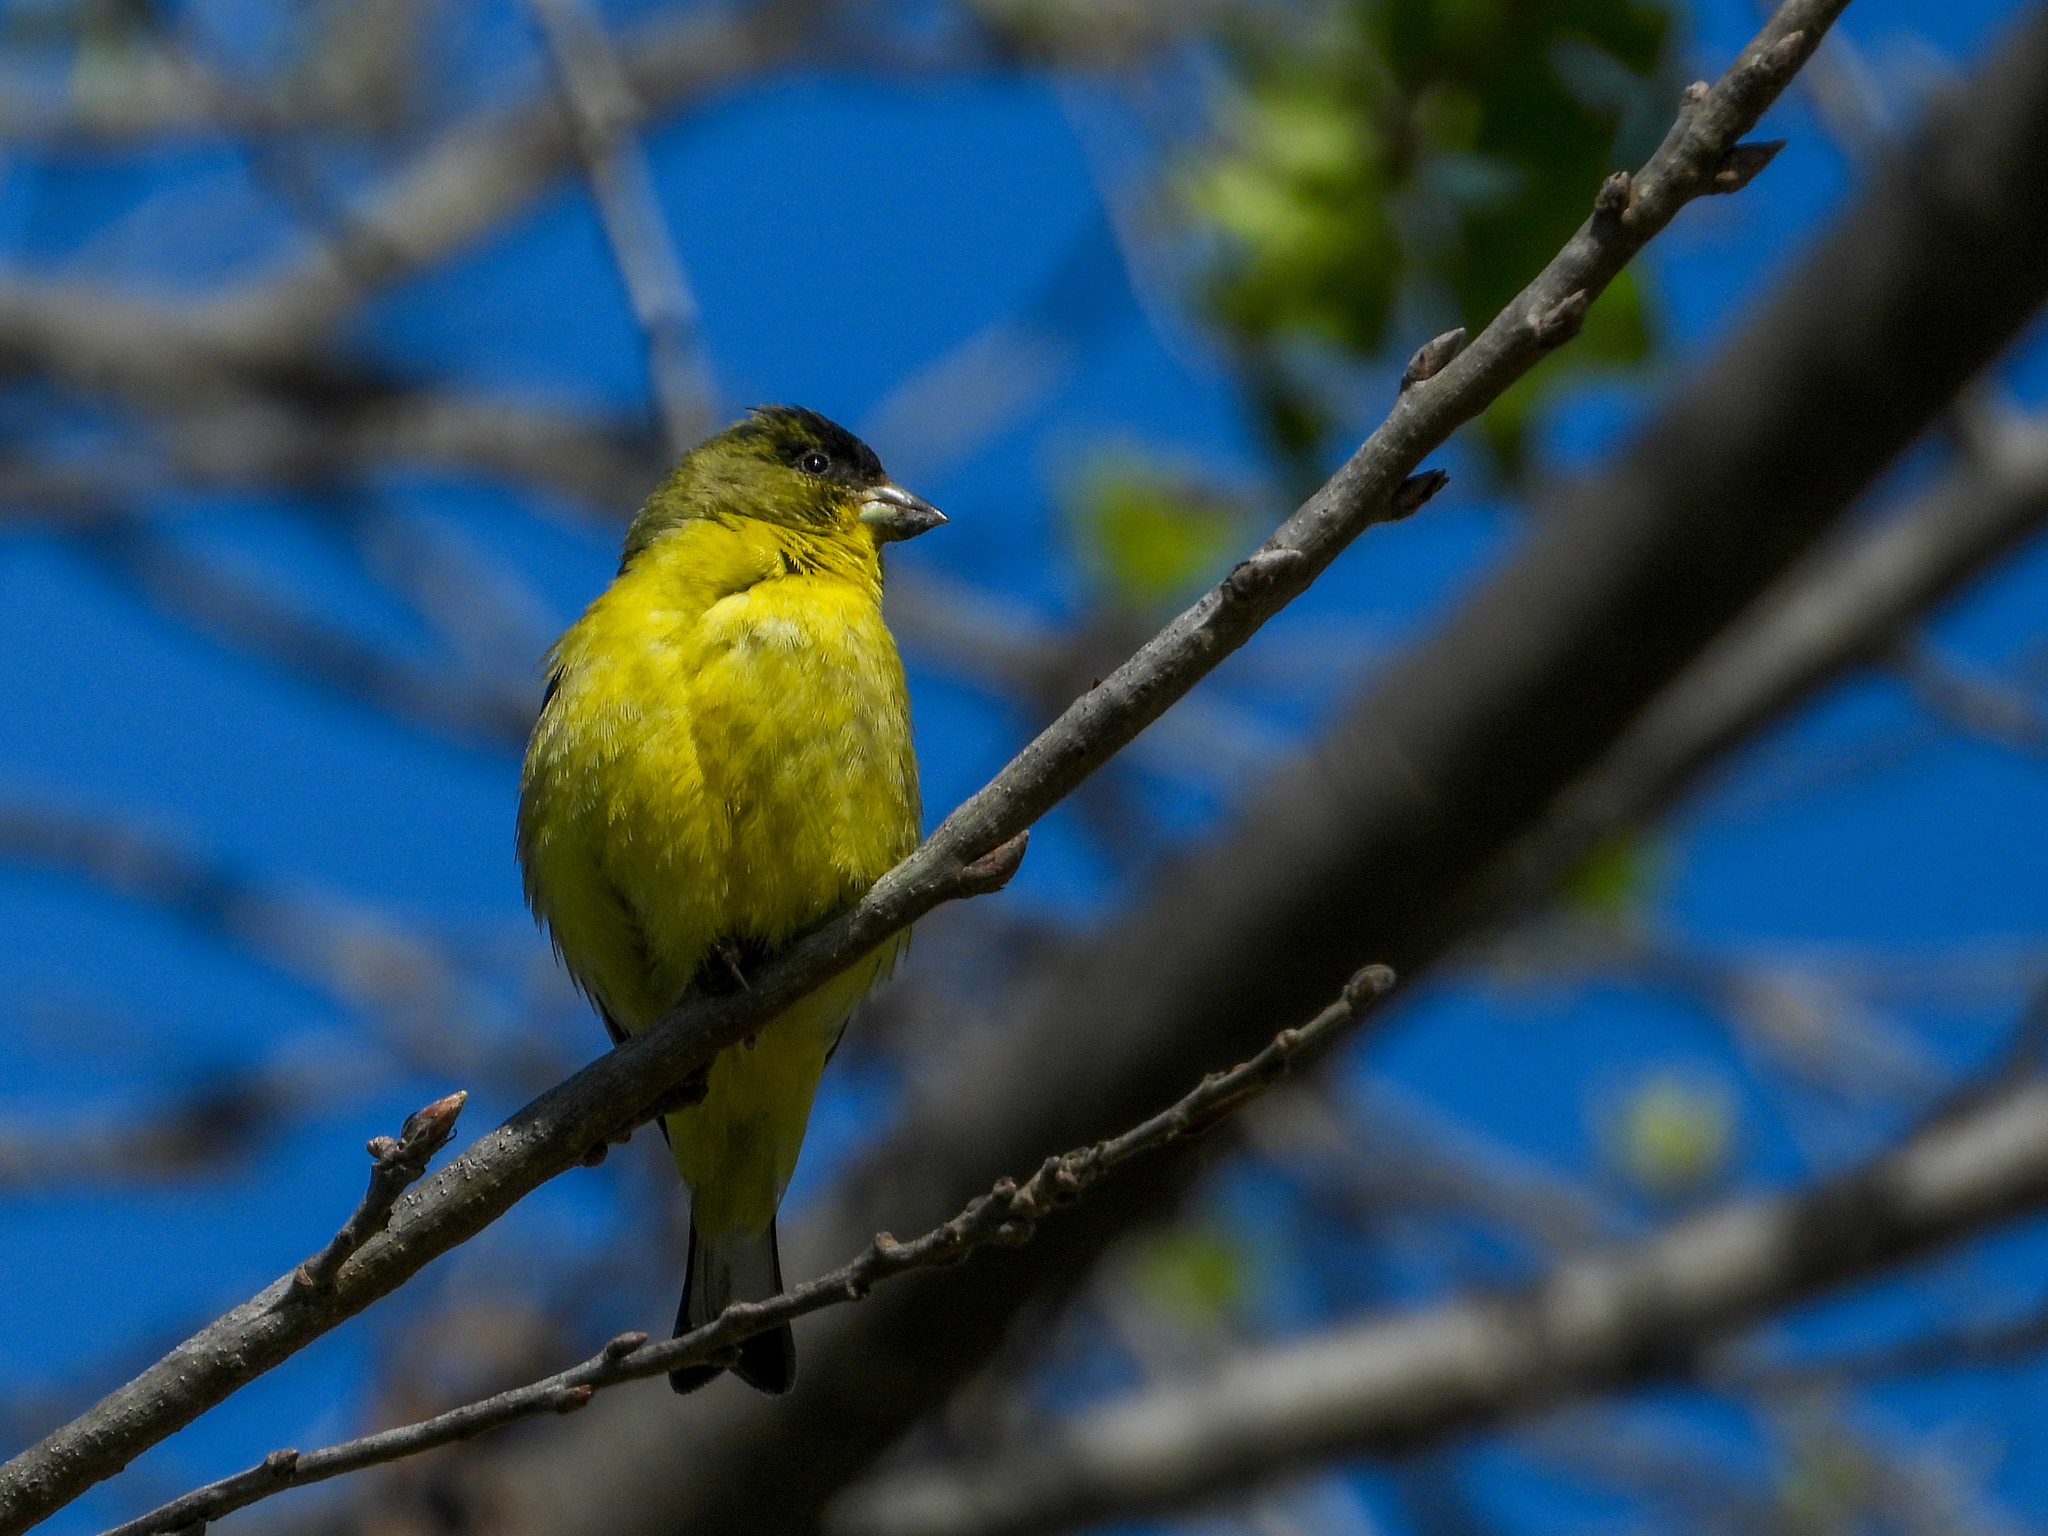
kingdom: Animalia
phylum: Chordata
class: Aves
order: Passeriformes
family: Fringillidae
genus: Spinus
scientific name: Spinus psaltria
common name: Lesser goldfinch
